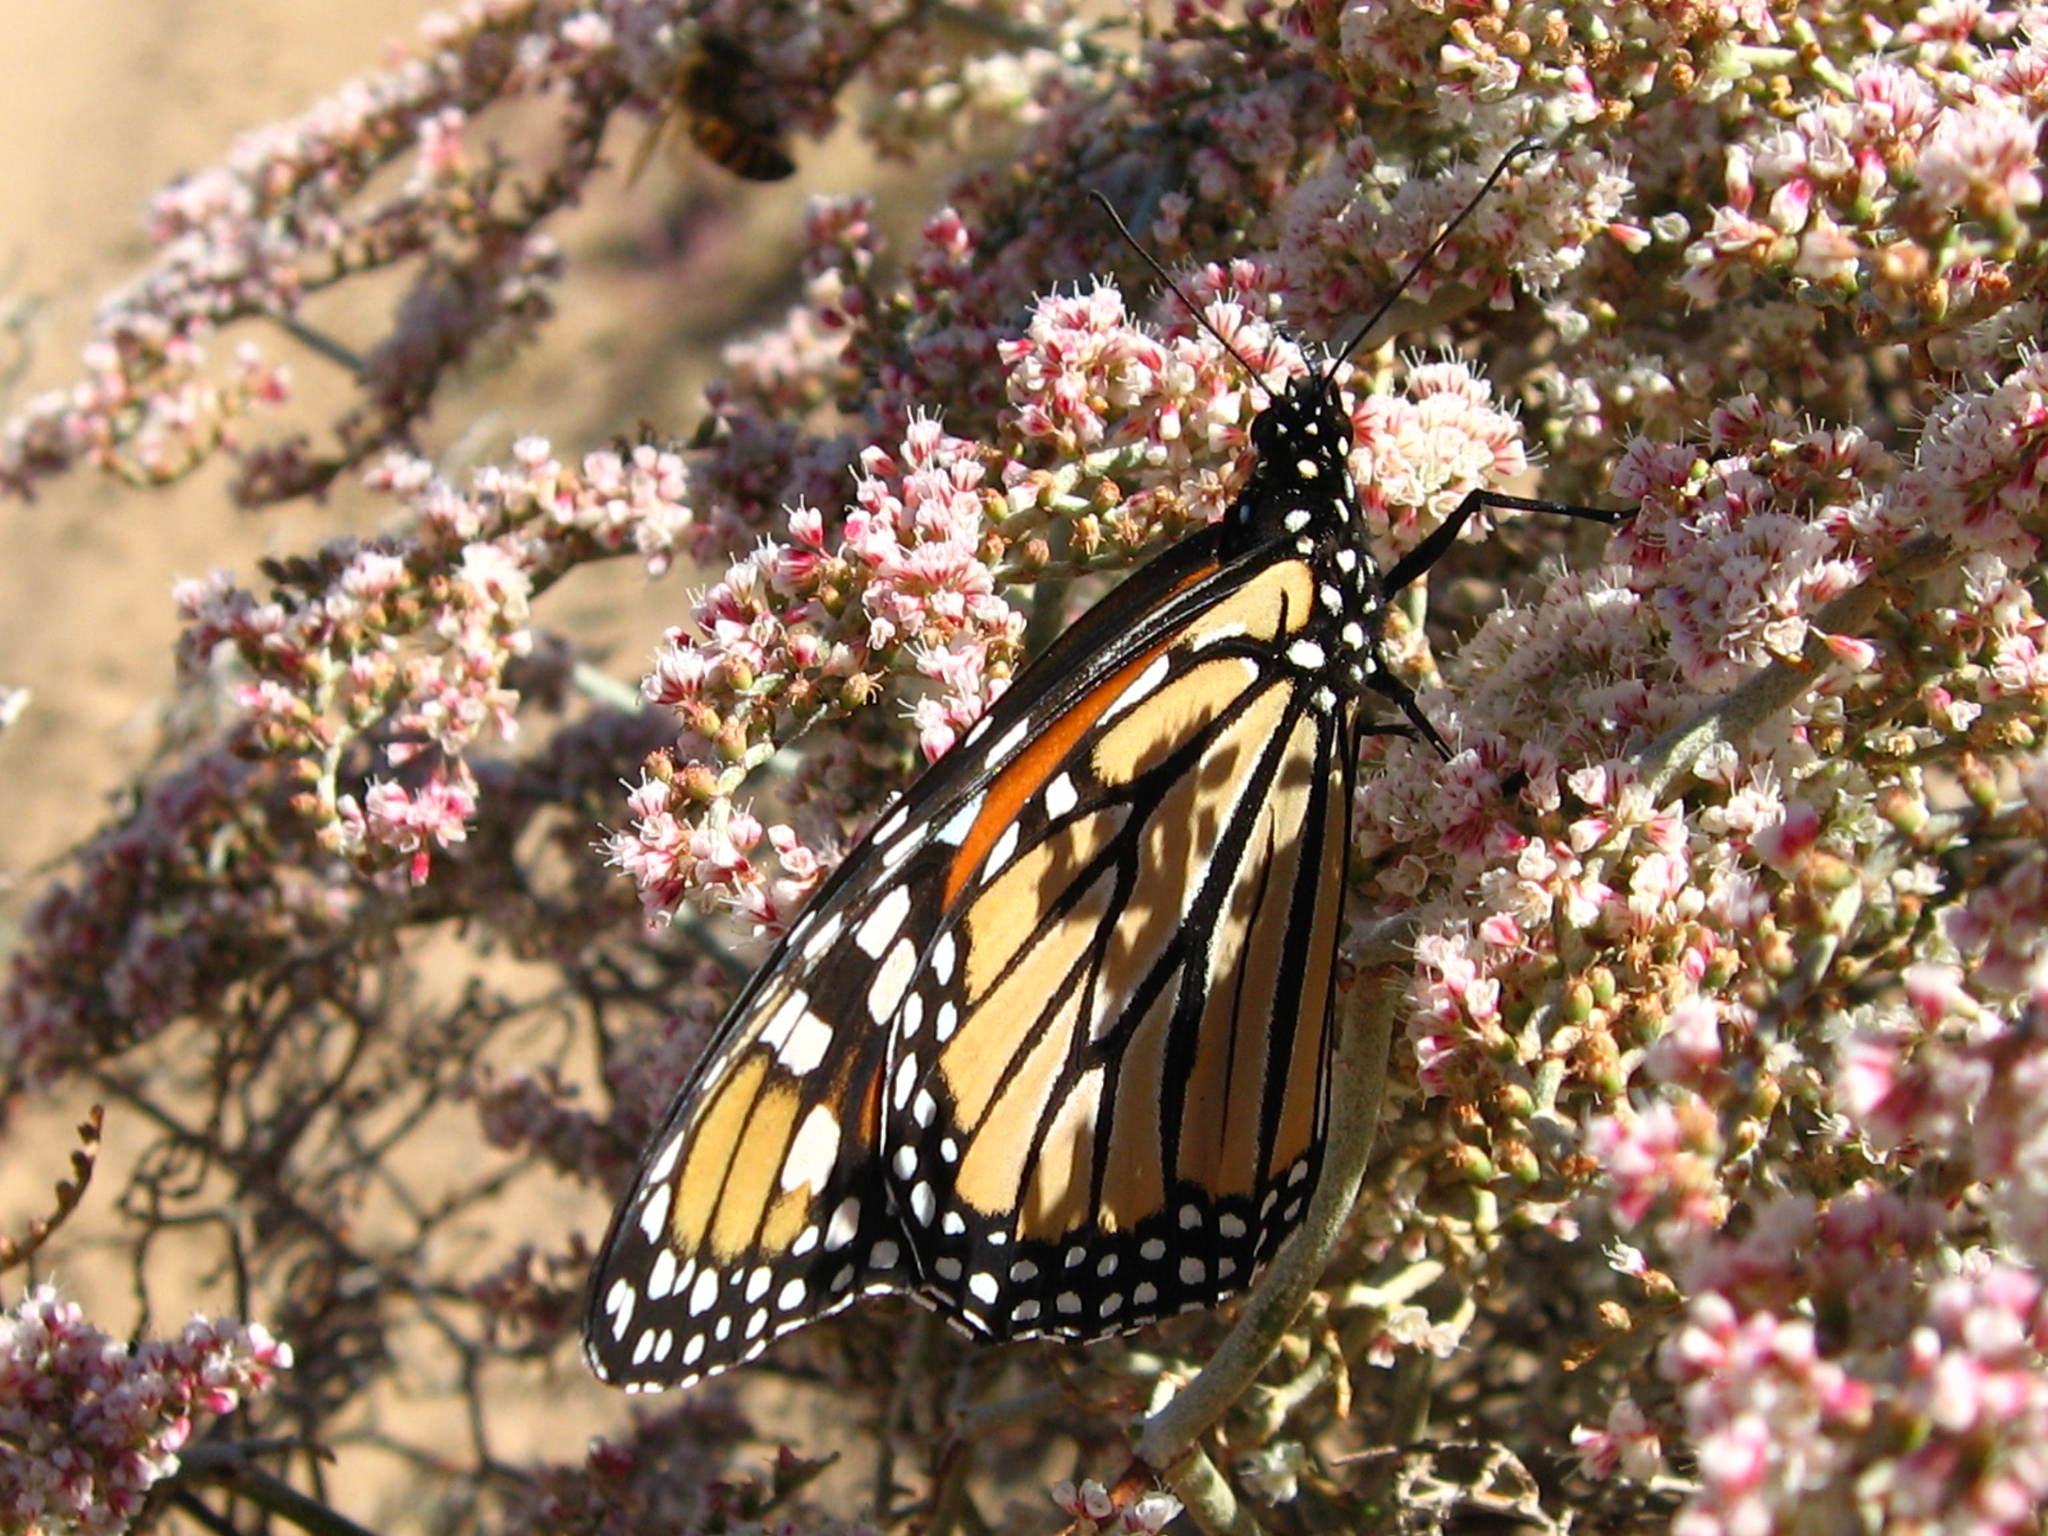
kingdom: Animalia
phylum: Arthropoda
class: Insecta
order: Lepidoptera
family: Nymphalidae
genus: Danaus
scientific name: Danaus plexippus
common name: Monarch
